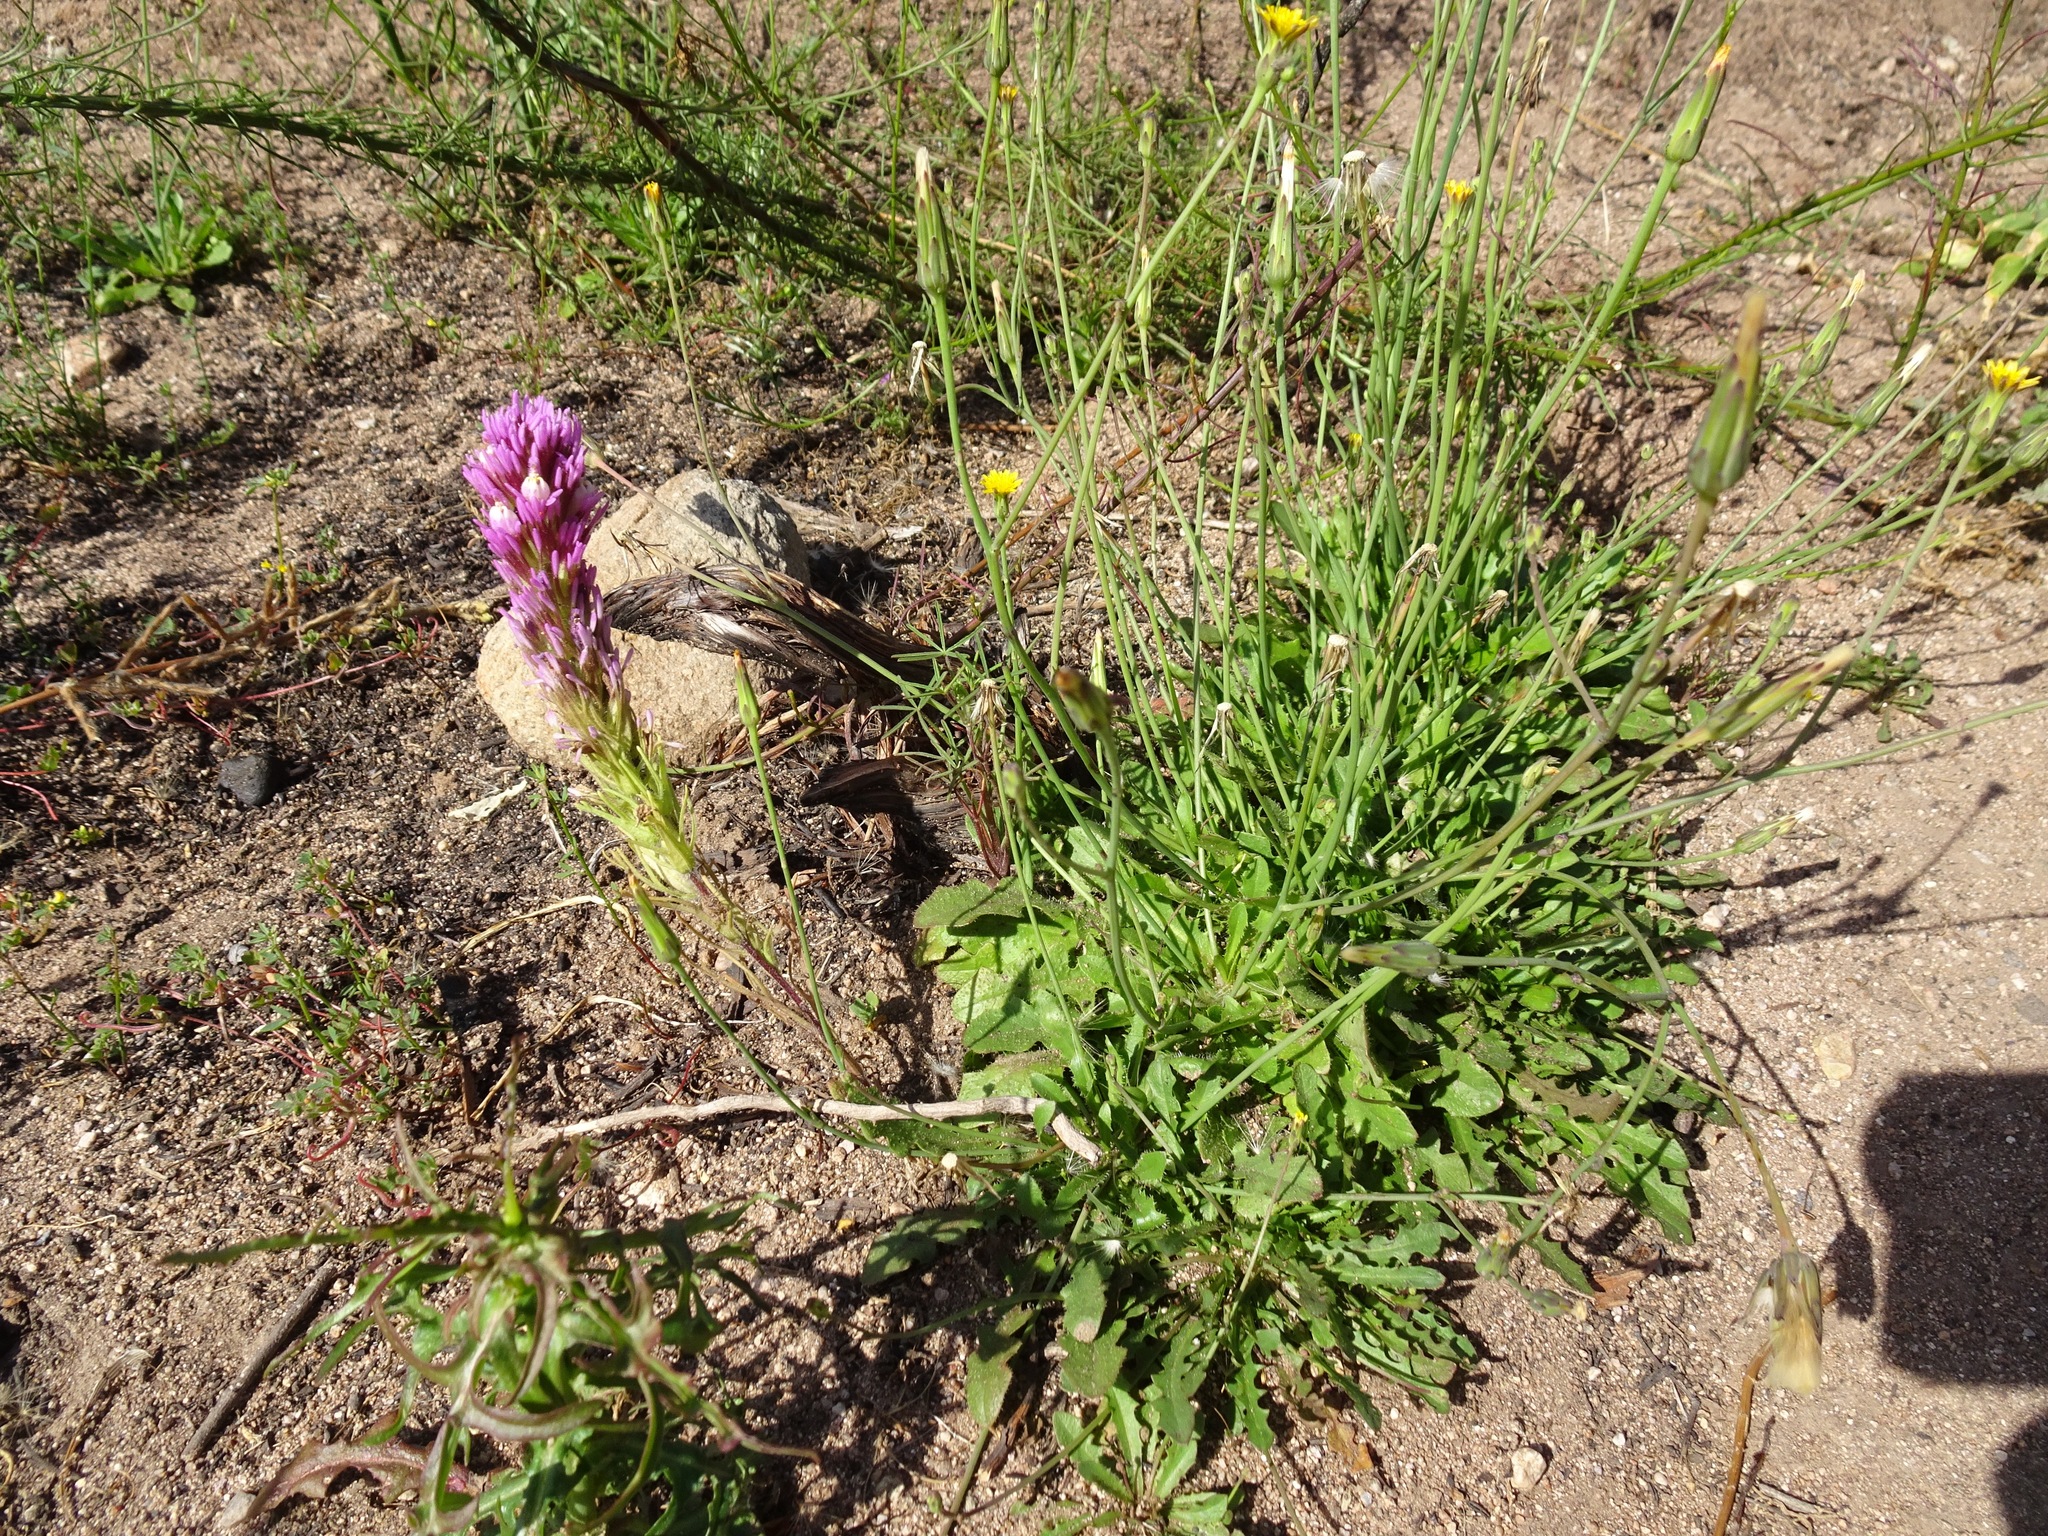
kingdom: Plantae
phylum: Tracheophyta
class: Magnoliopsida
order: Lamiales
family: Orobanchaceae
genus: Castilleja
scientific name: Castilleja exserta
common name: Purple owl-clover
